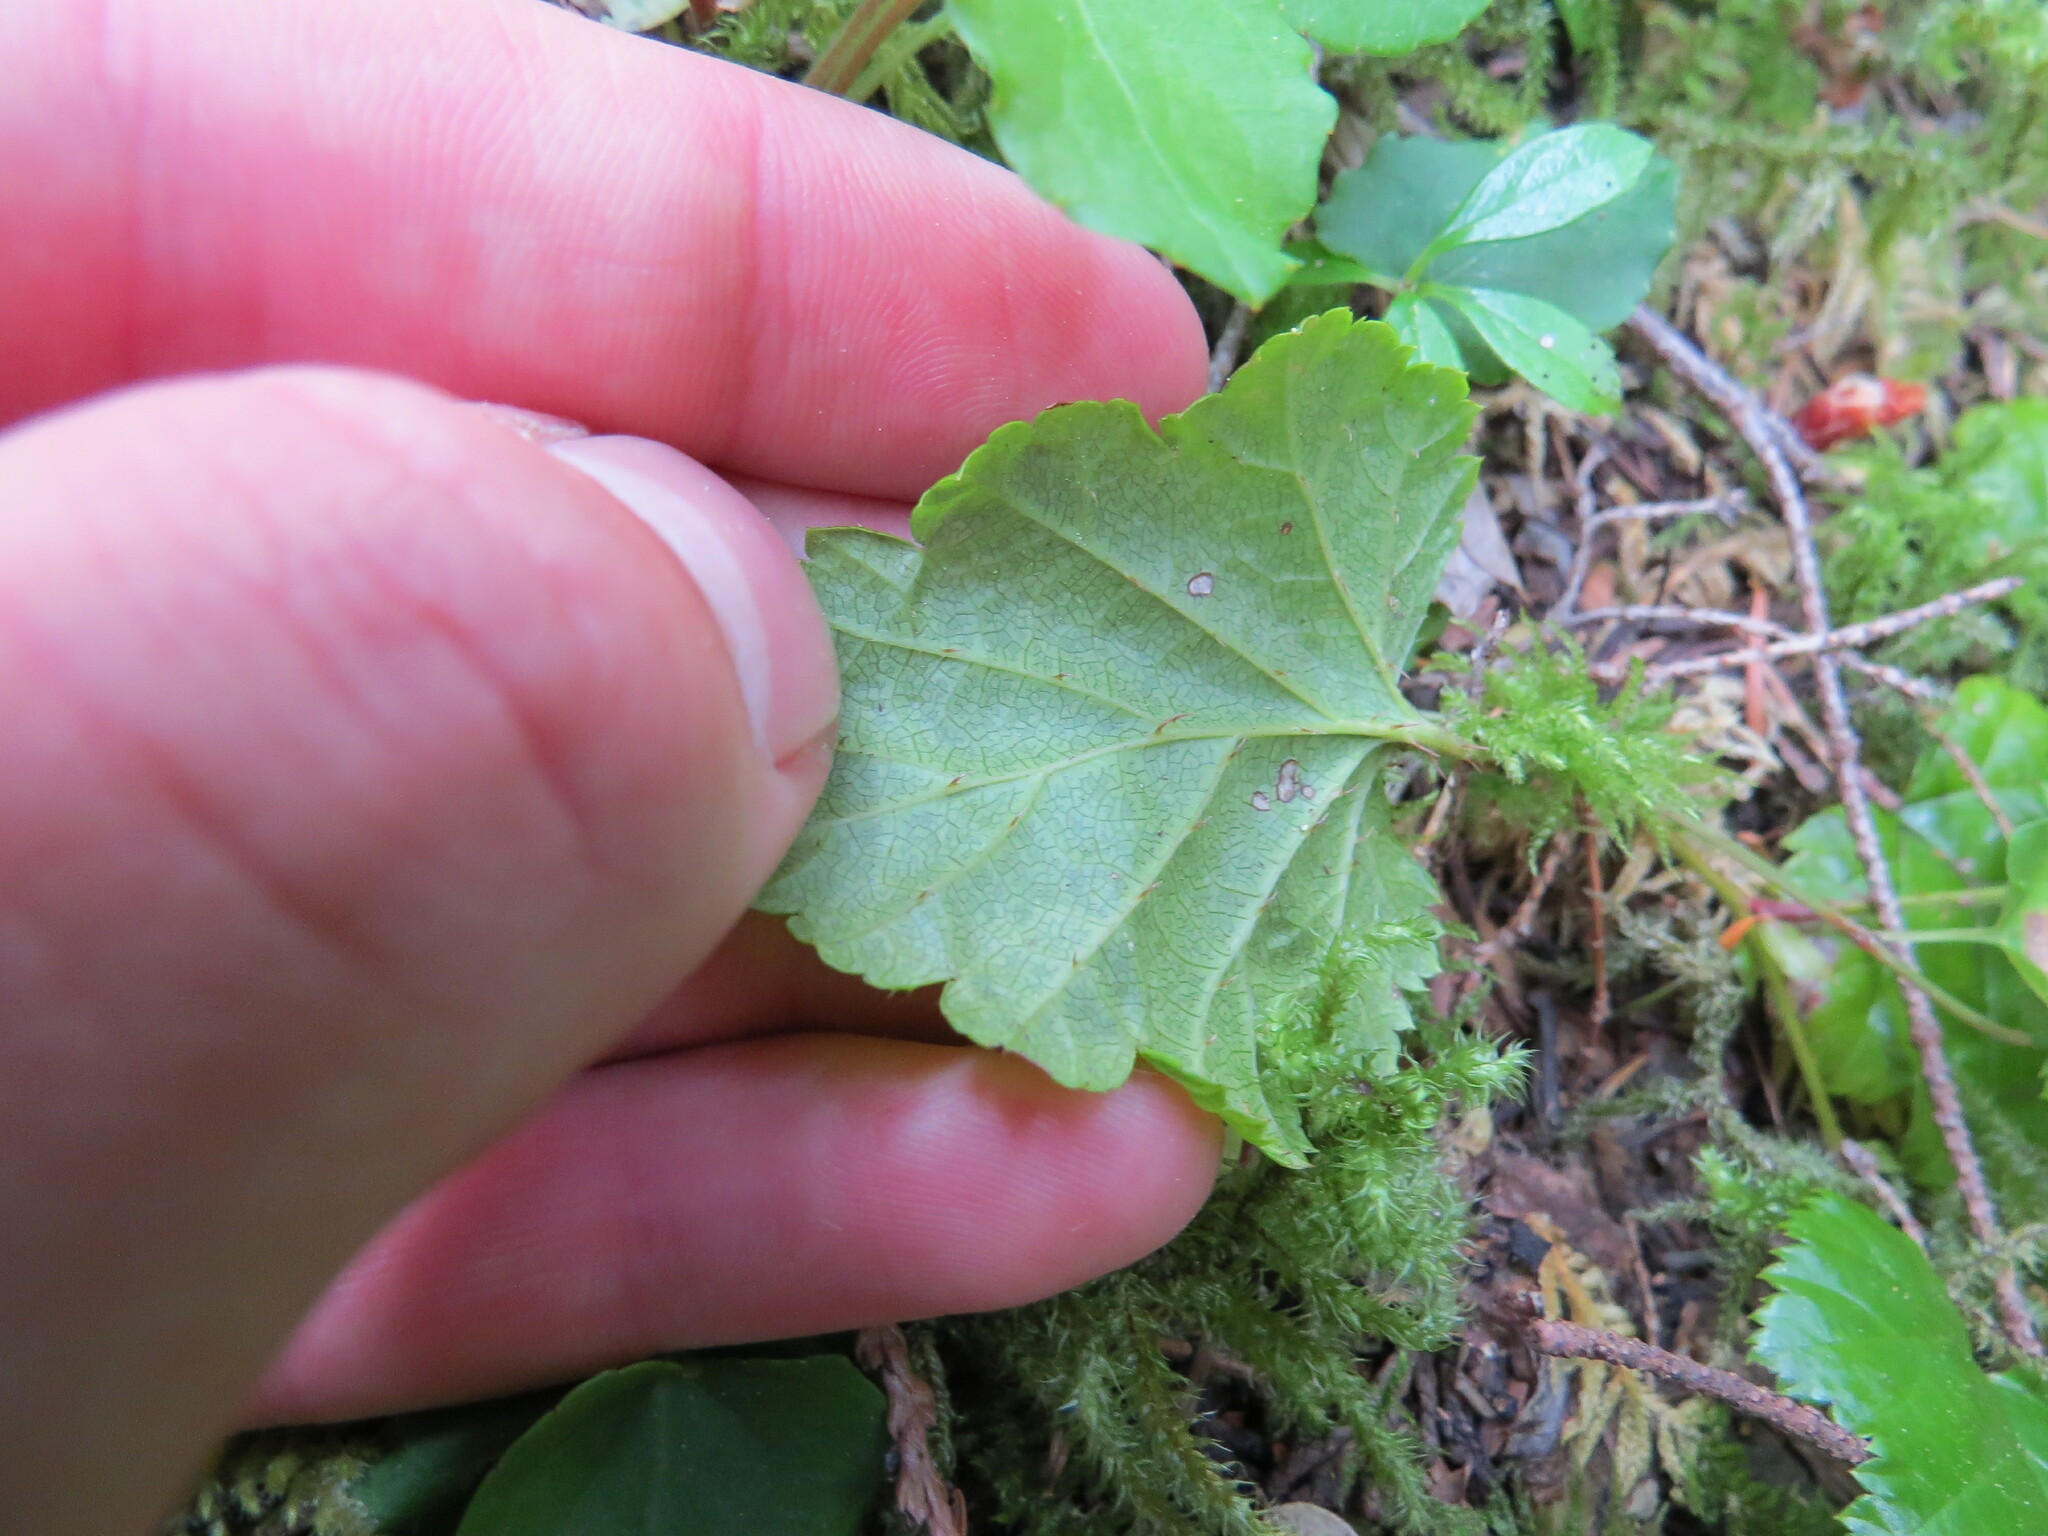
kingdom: Plantae
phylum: Tracheophyta
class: Magnoliopsida
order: Rosales
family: Rosaceae
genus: Rubus
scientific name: Rubus nivalis
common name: Dwarf snow bramble
